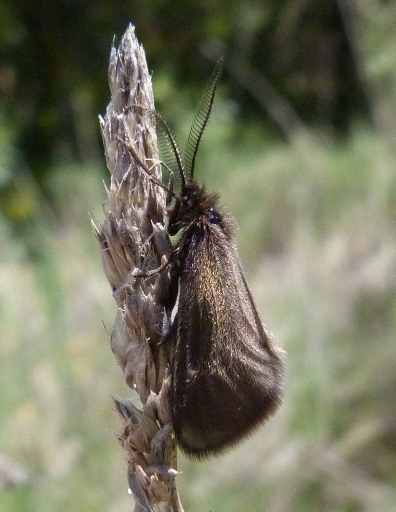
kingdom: Animalia
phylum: Arthropoda
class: Insecta
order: Lepidoptera
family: Heterogynidae
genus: Heterogynis
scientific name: Heterogynis penella
